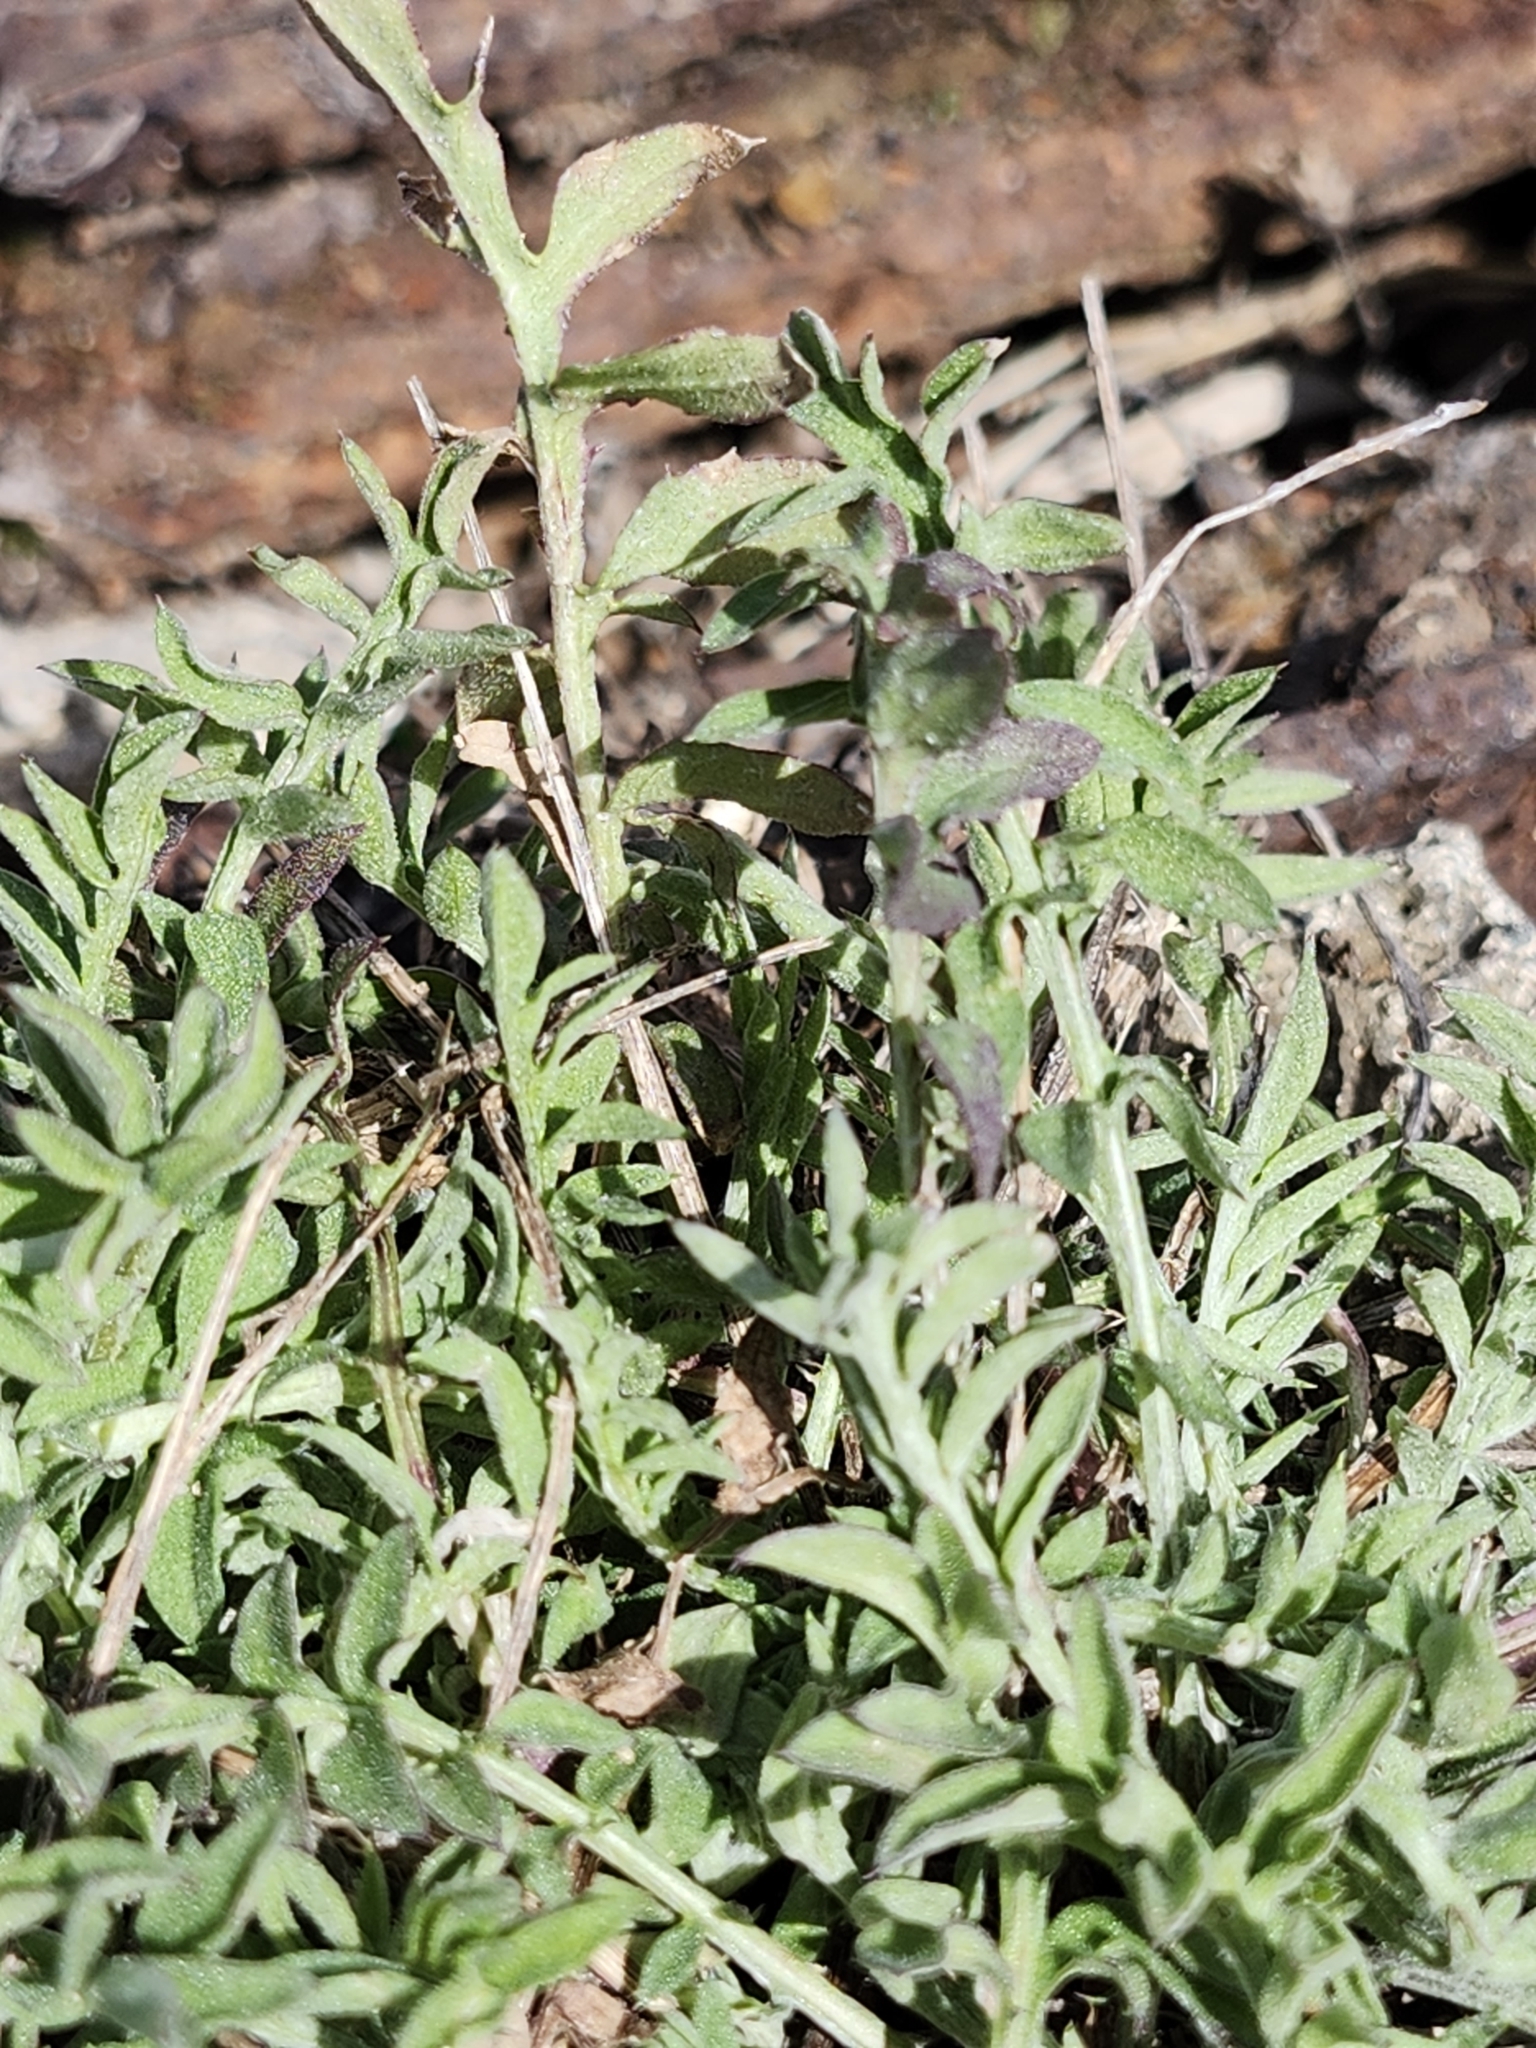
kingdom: Plantae
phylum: Tracheophyta
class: Magnoliopsida
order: Asterales
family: Asteraceae
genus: Centaurea
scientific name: Centaurea stoebe
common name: Spotted knapweed
